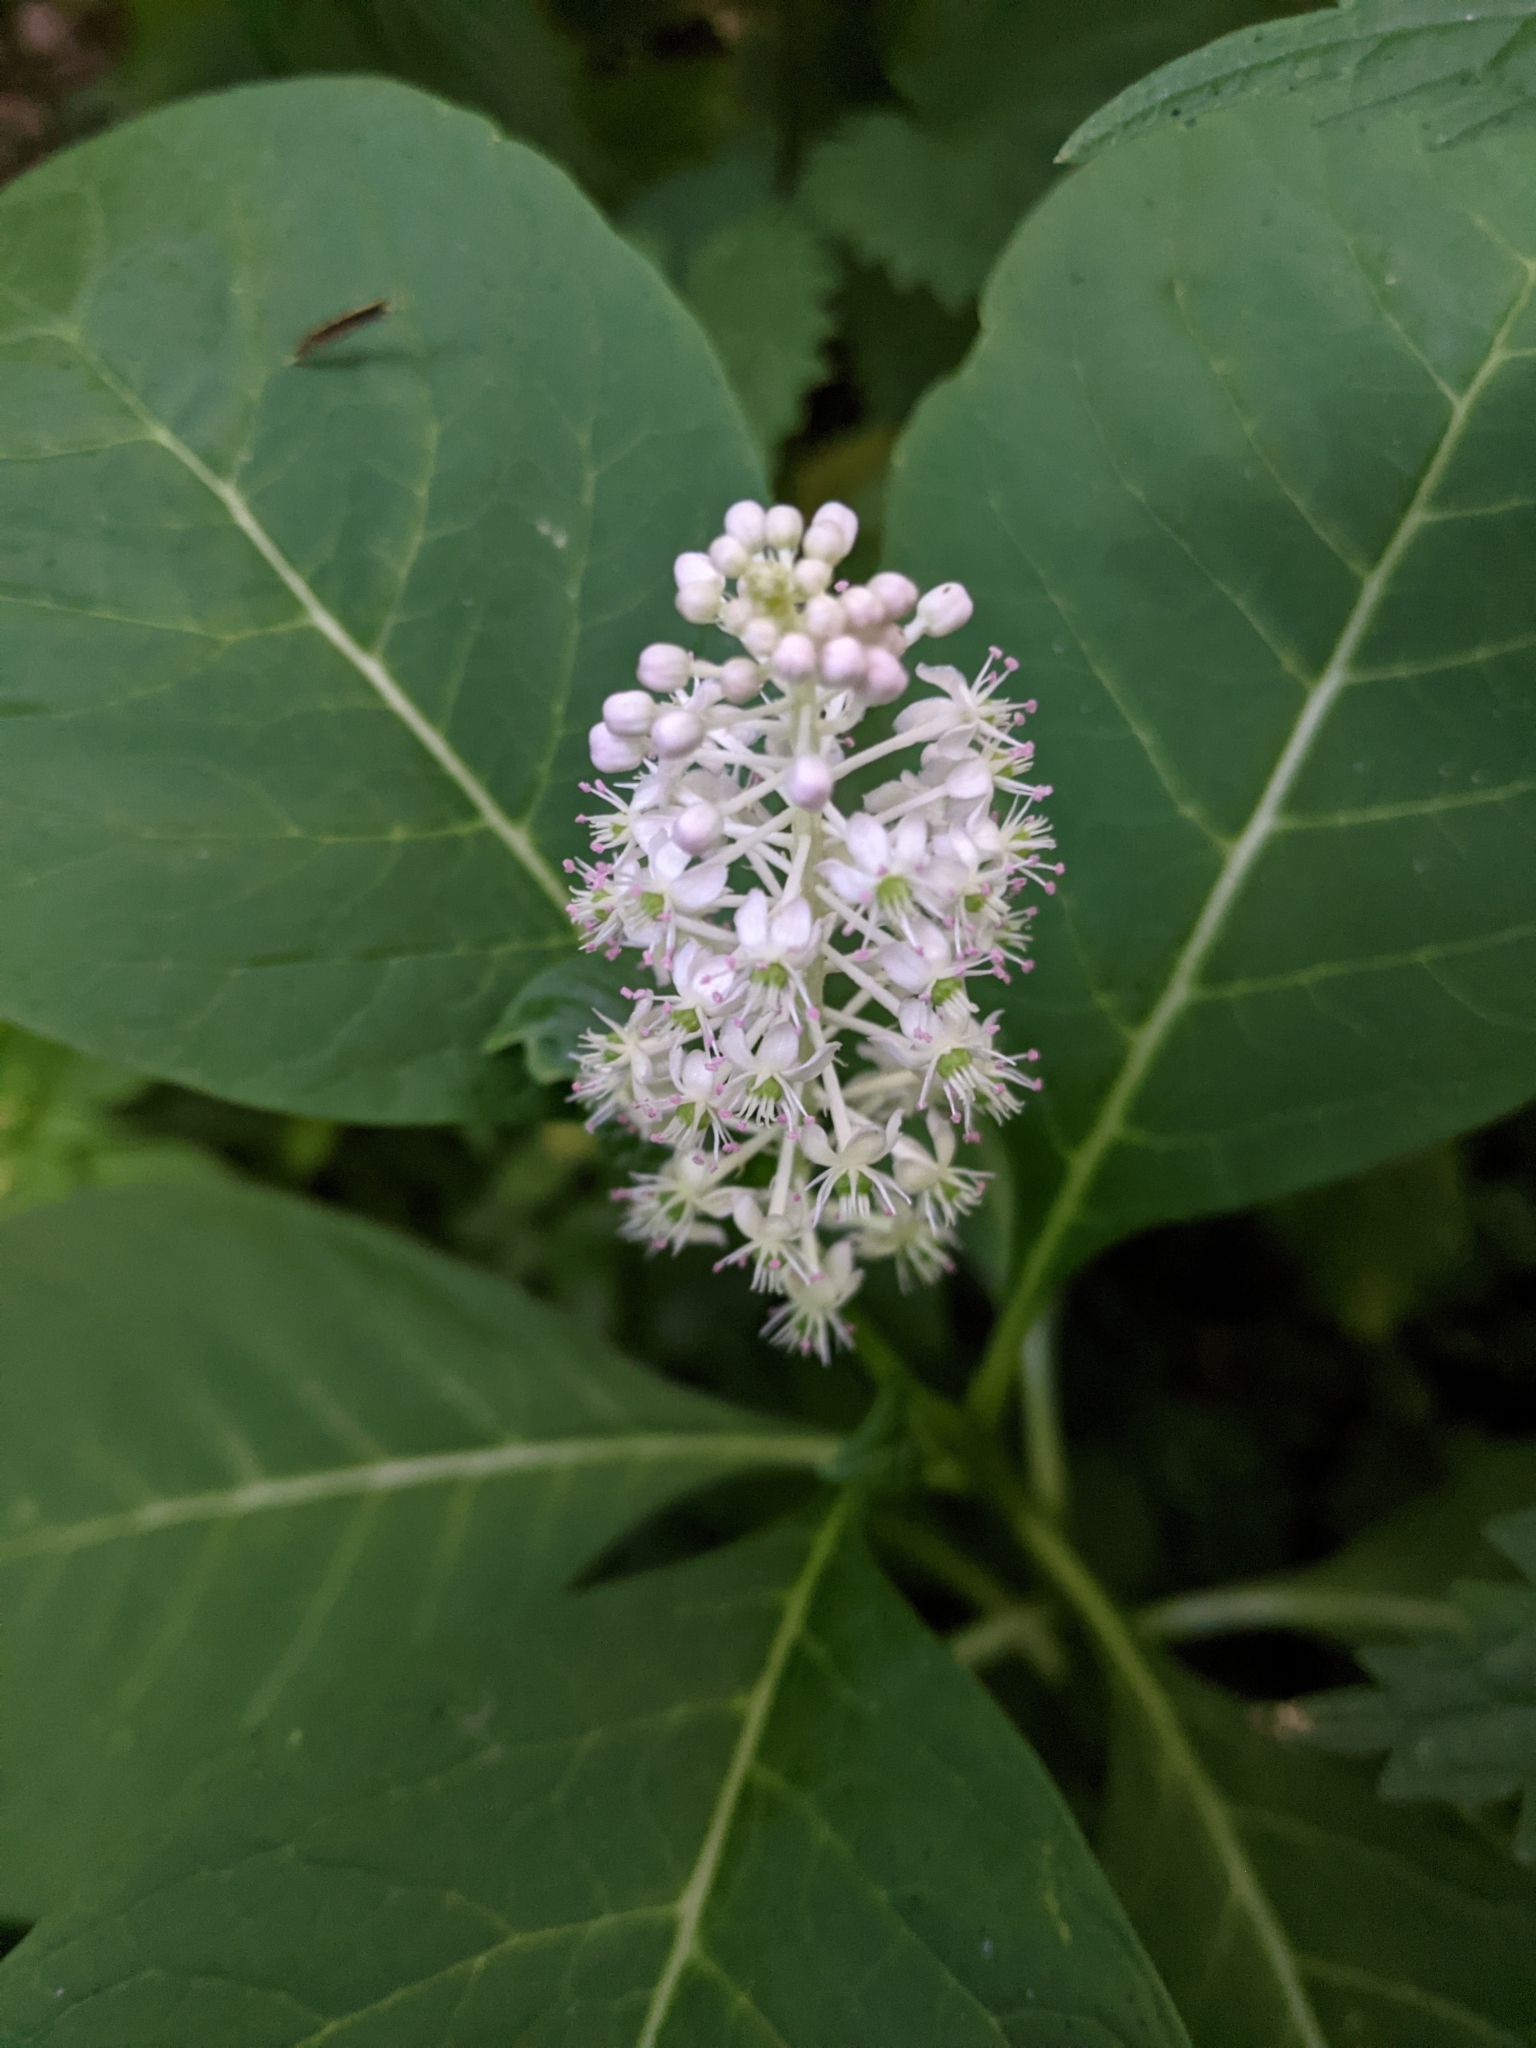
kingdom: Plantae
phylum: Tracheophyta
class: Magnoliopsida
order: Caryophyllales
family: Phytolaccaceae
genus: Phytolacca
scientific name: Phytolacca acinosa
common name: Indian pokeweed
